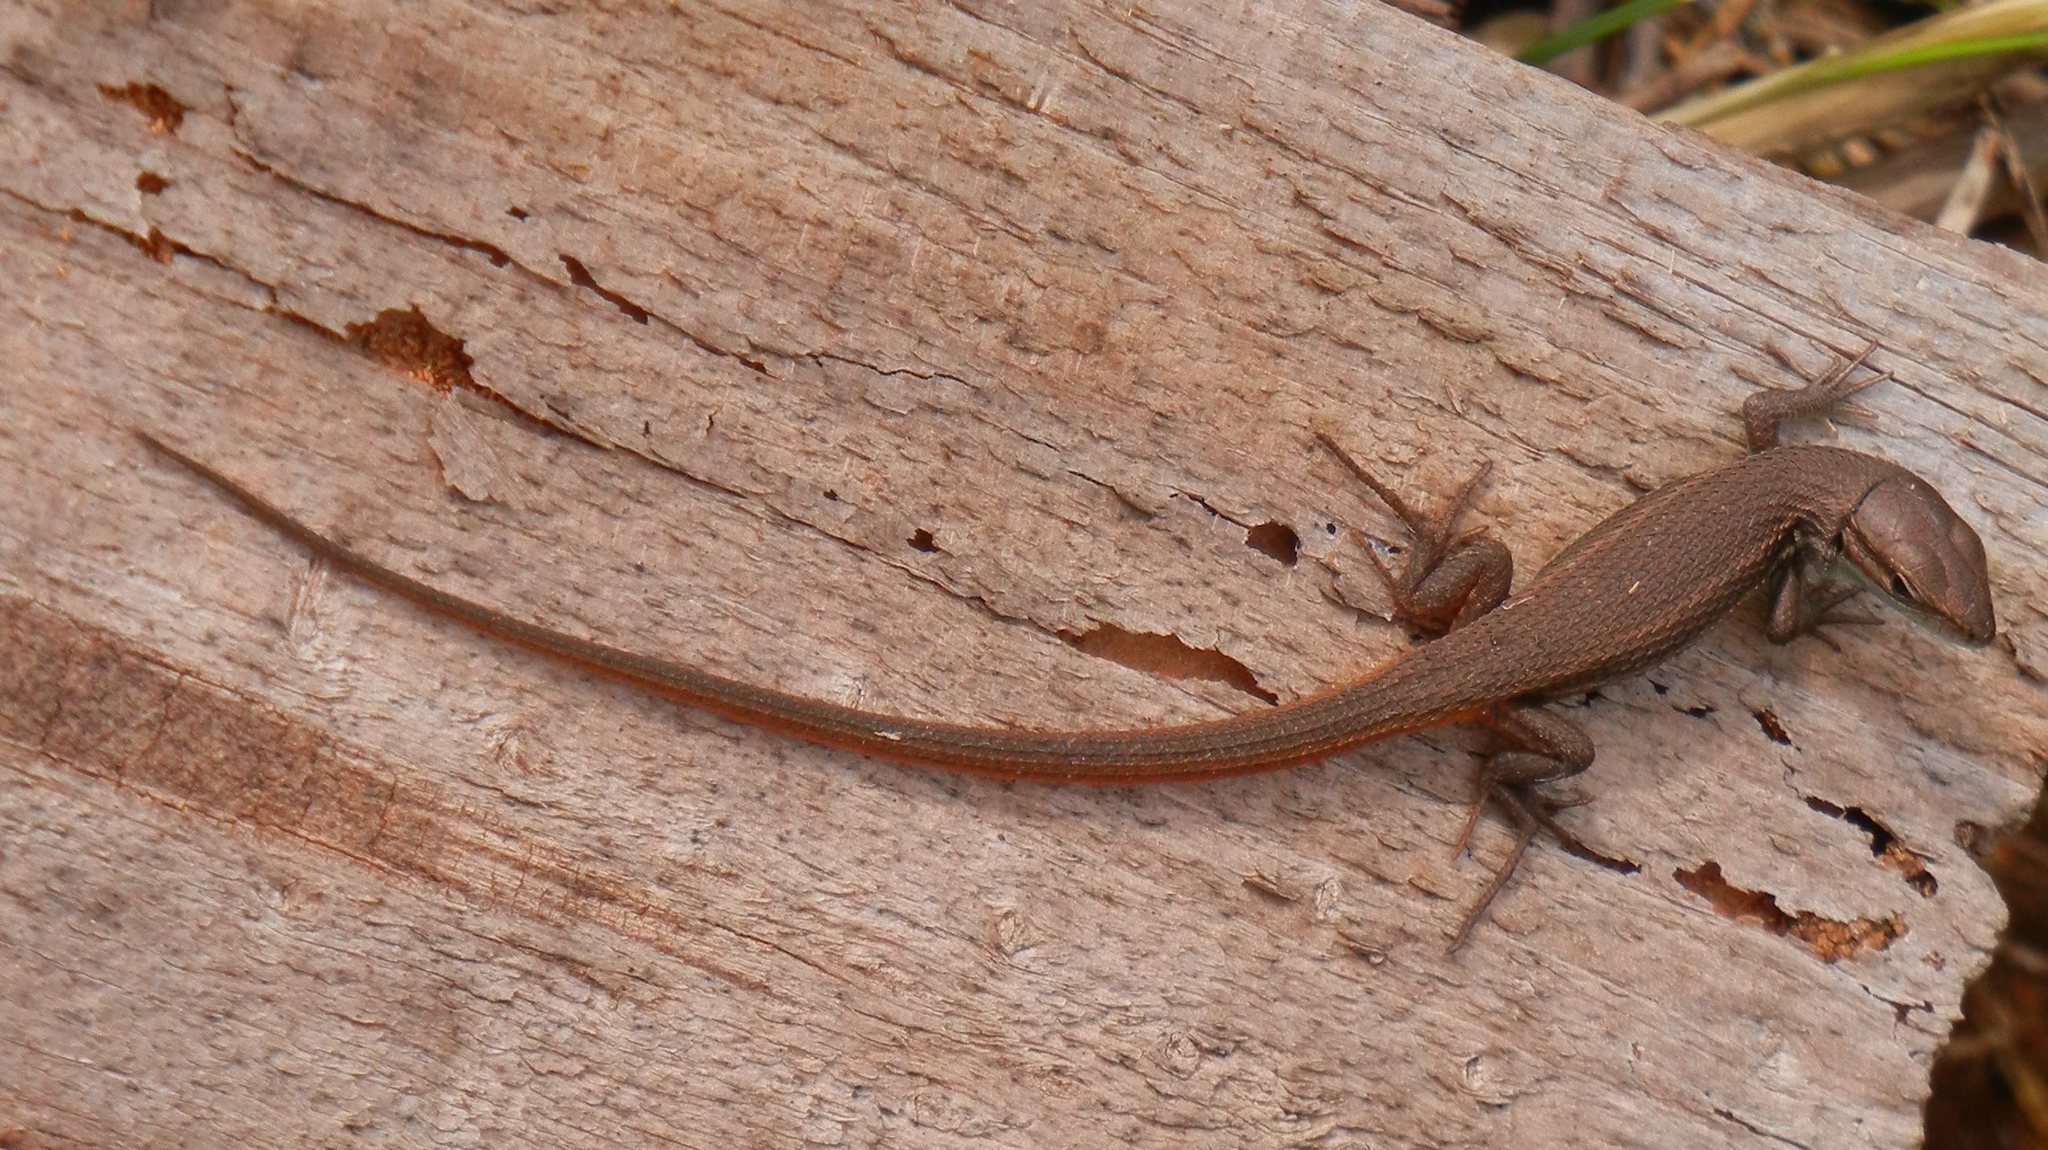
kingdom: Animalia
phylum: Chordata
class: Squamata
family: Lacertidae
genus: Psammodromus
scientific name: Psammodromus algirus
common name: Algerian psammodromus
